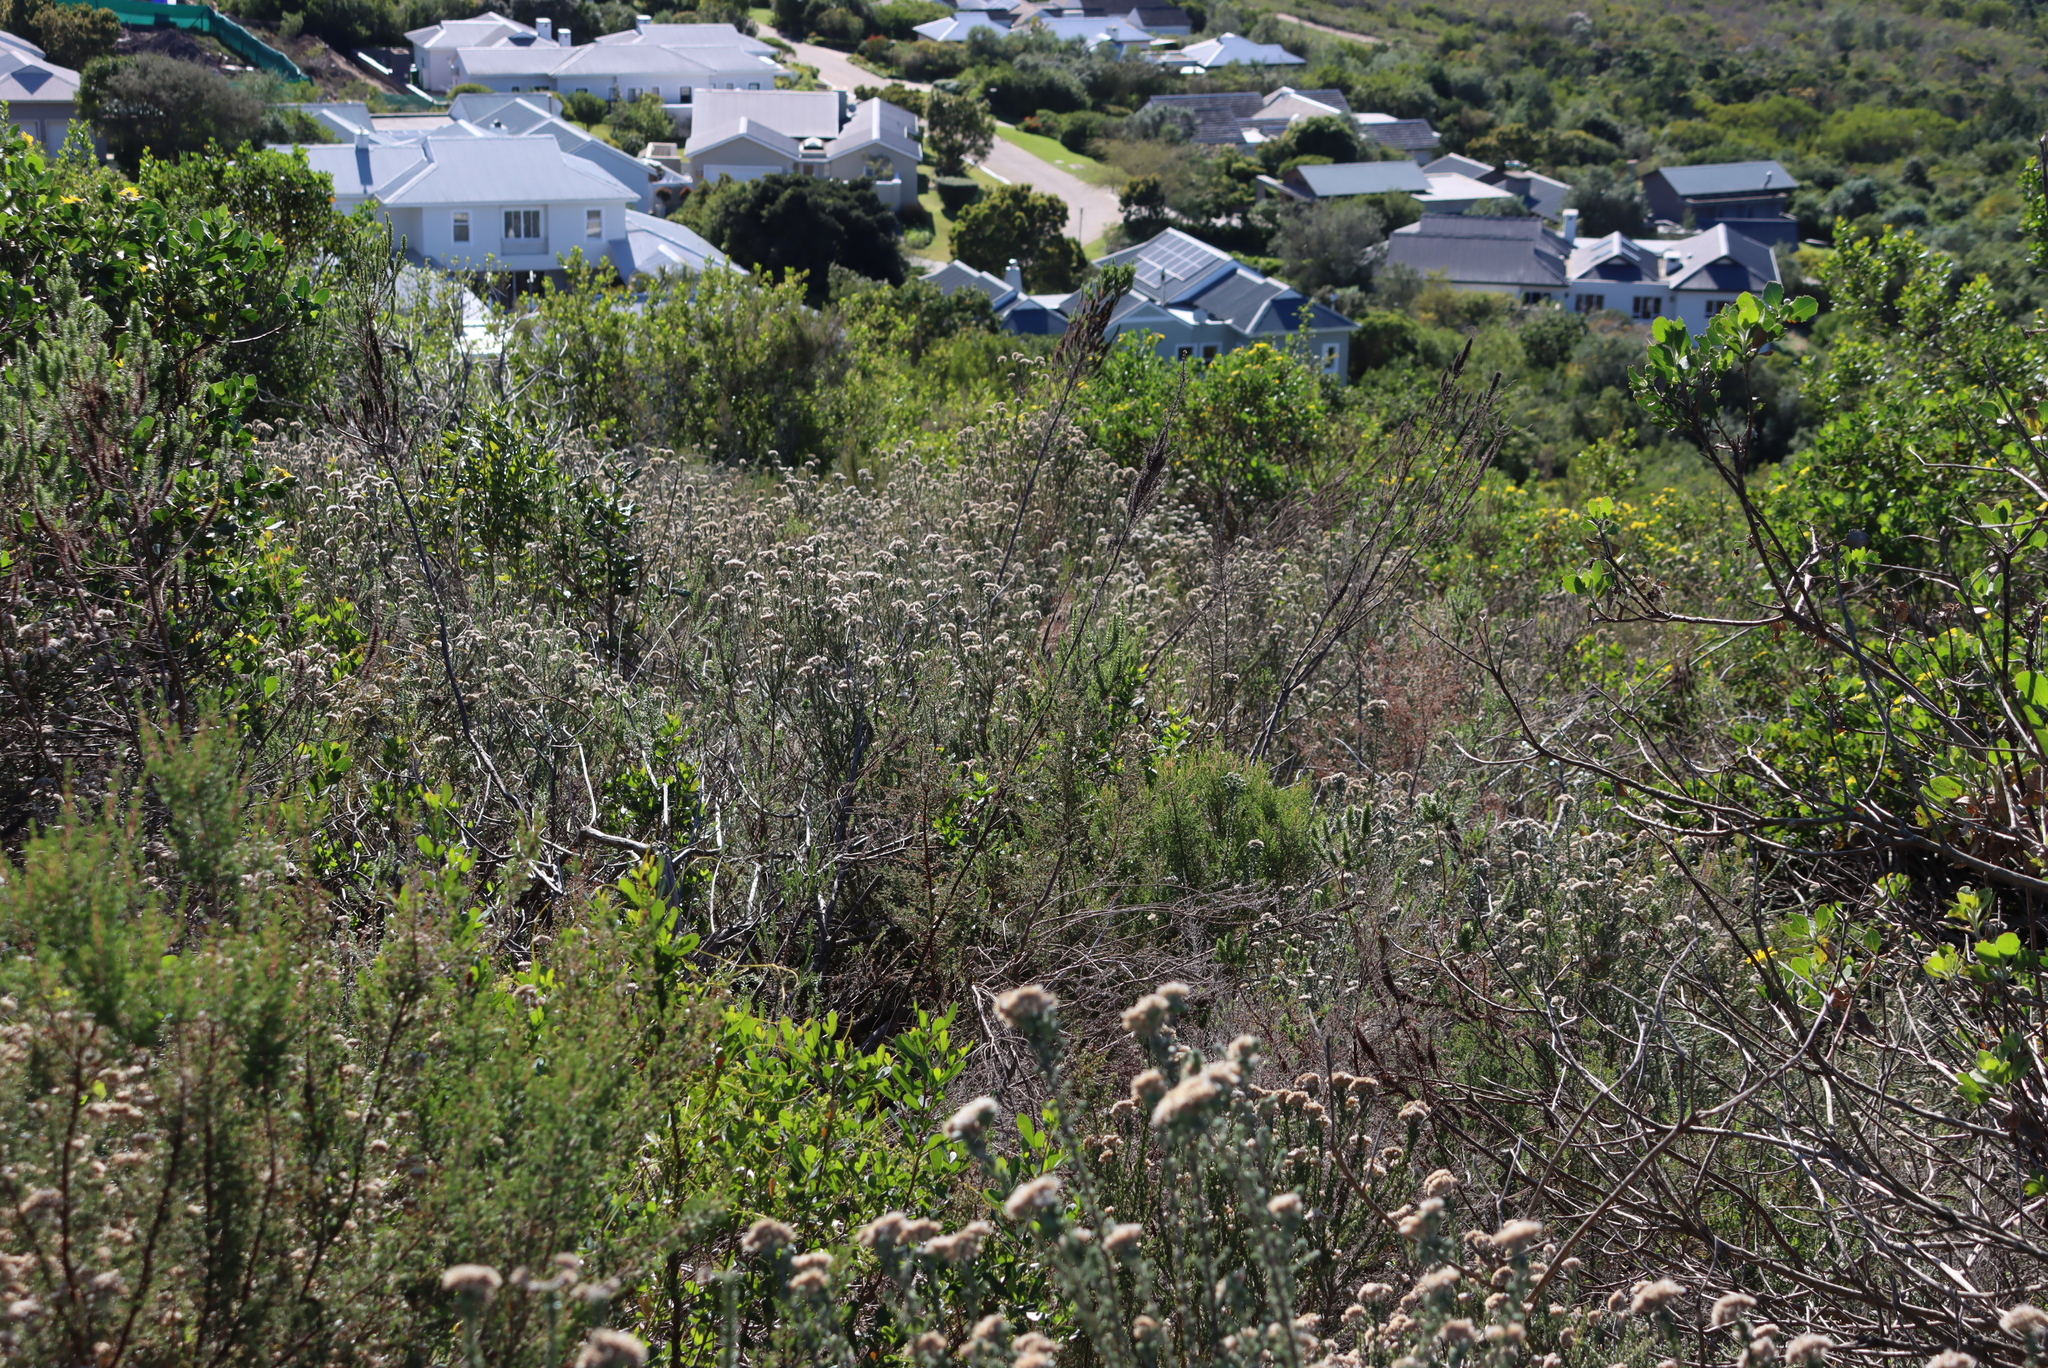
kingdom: Plantae
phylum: Tracheophyta
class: Magnoliopsida
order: Asterales
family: Asteraceae
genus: Metalasia
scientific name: Metalasia pungens
